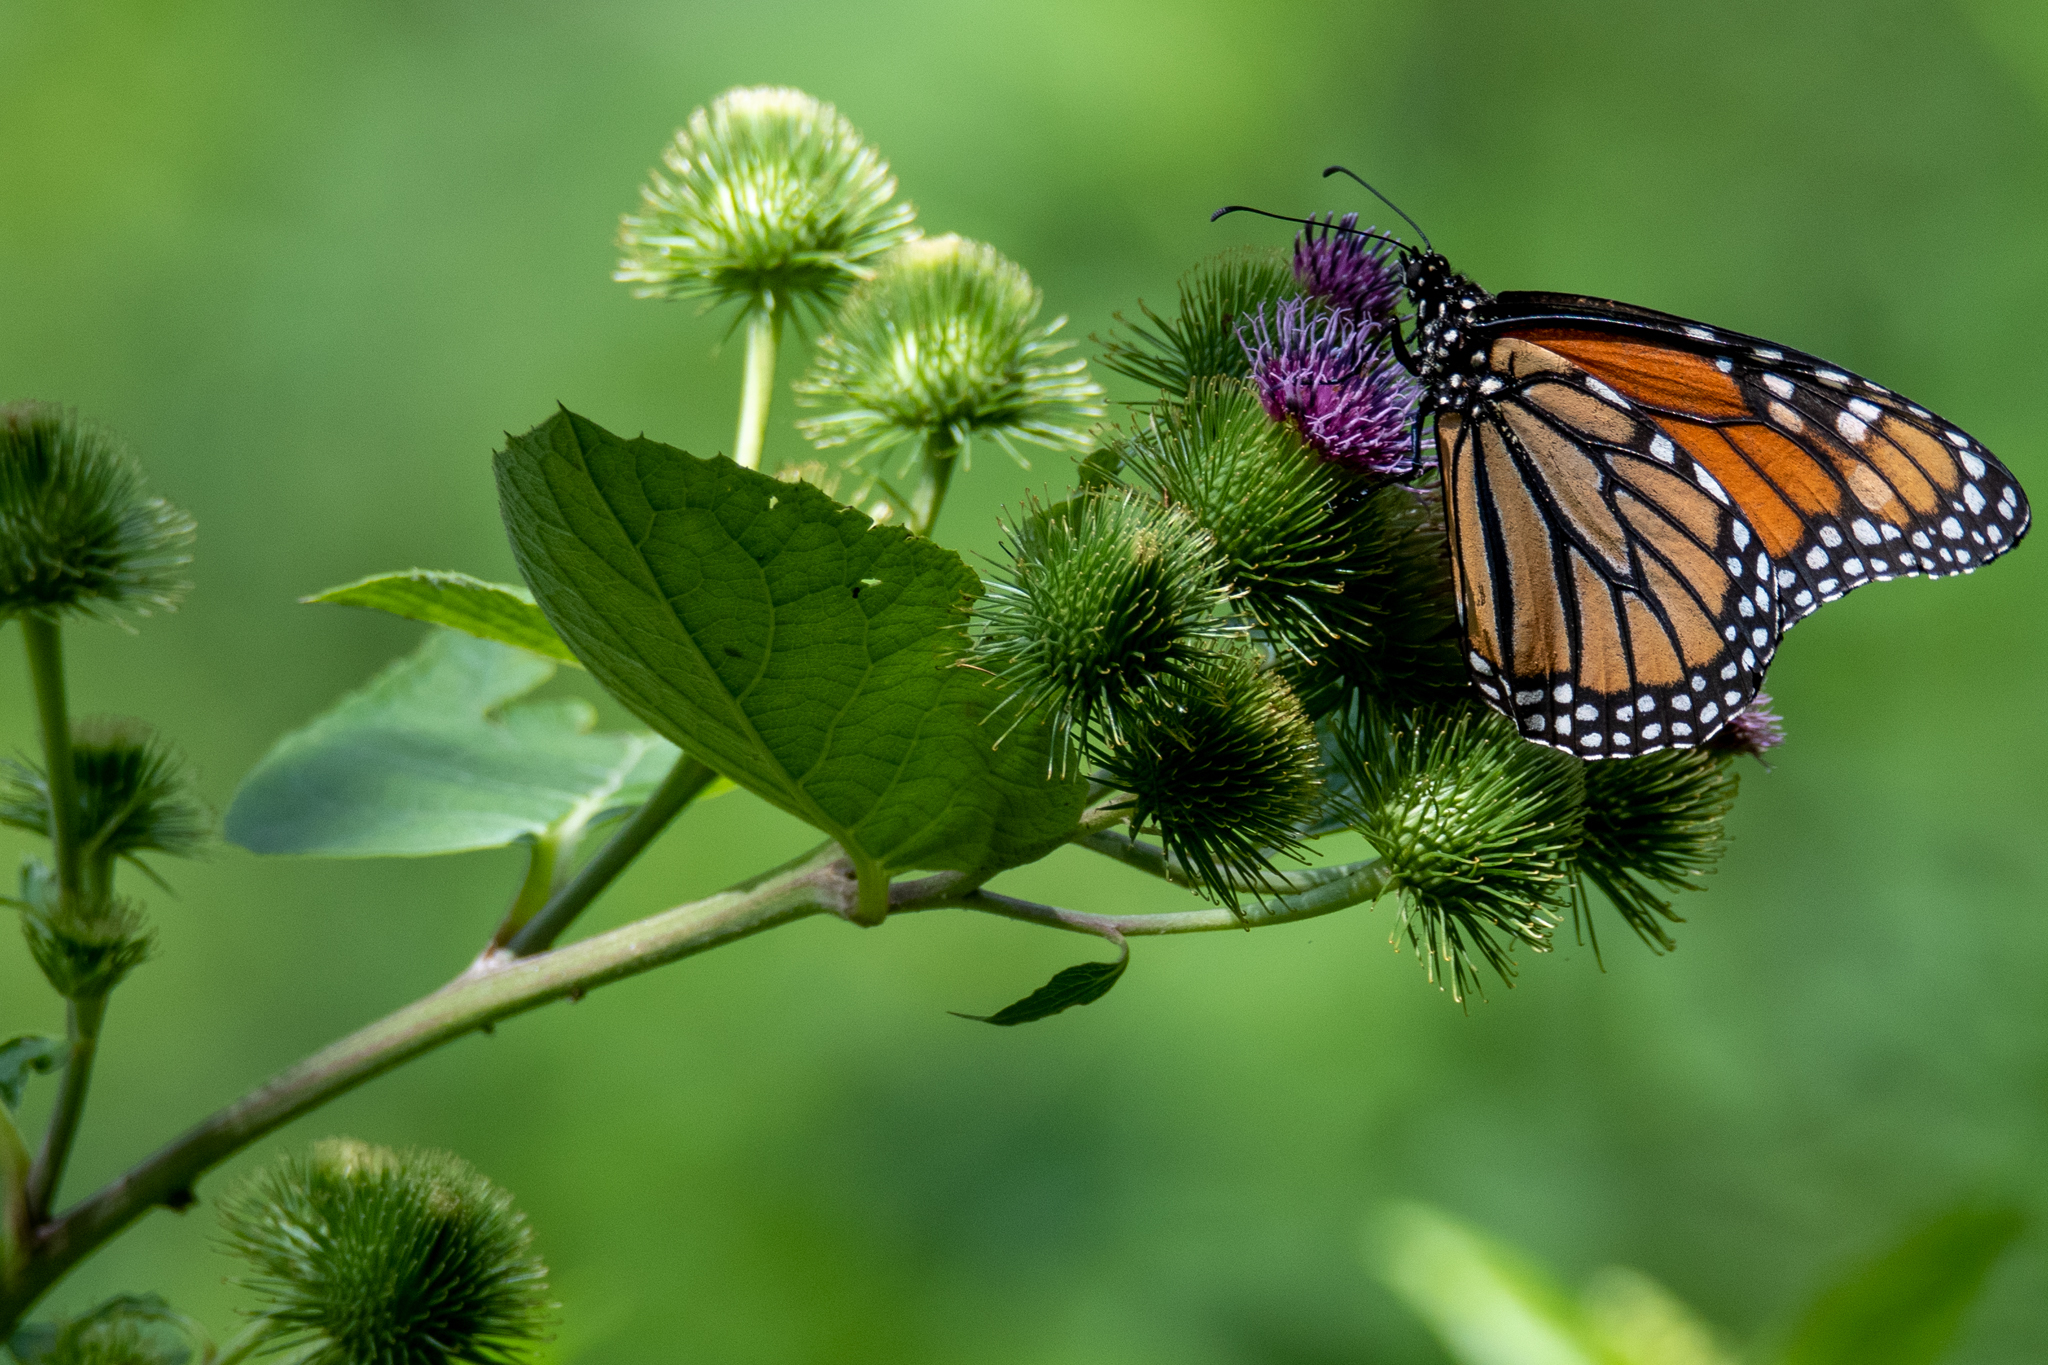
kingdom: Animalia
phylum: Arthropoda
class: Insecta
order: Lepidoptera
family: Nymphalidae
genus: Danaus
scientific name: Danaus plexippus
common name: Monarch
